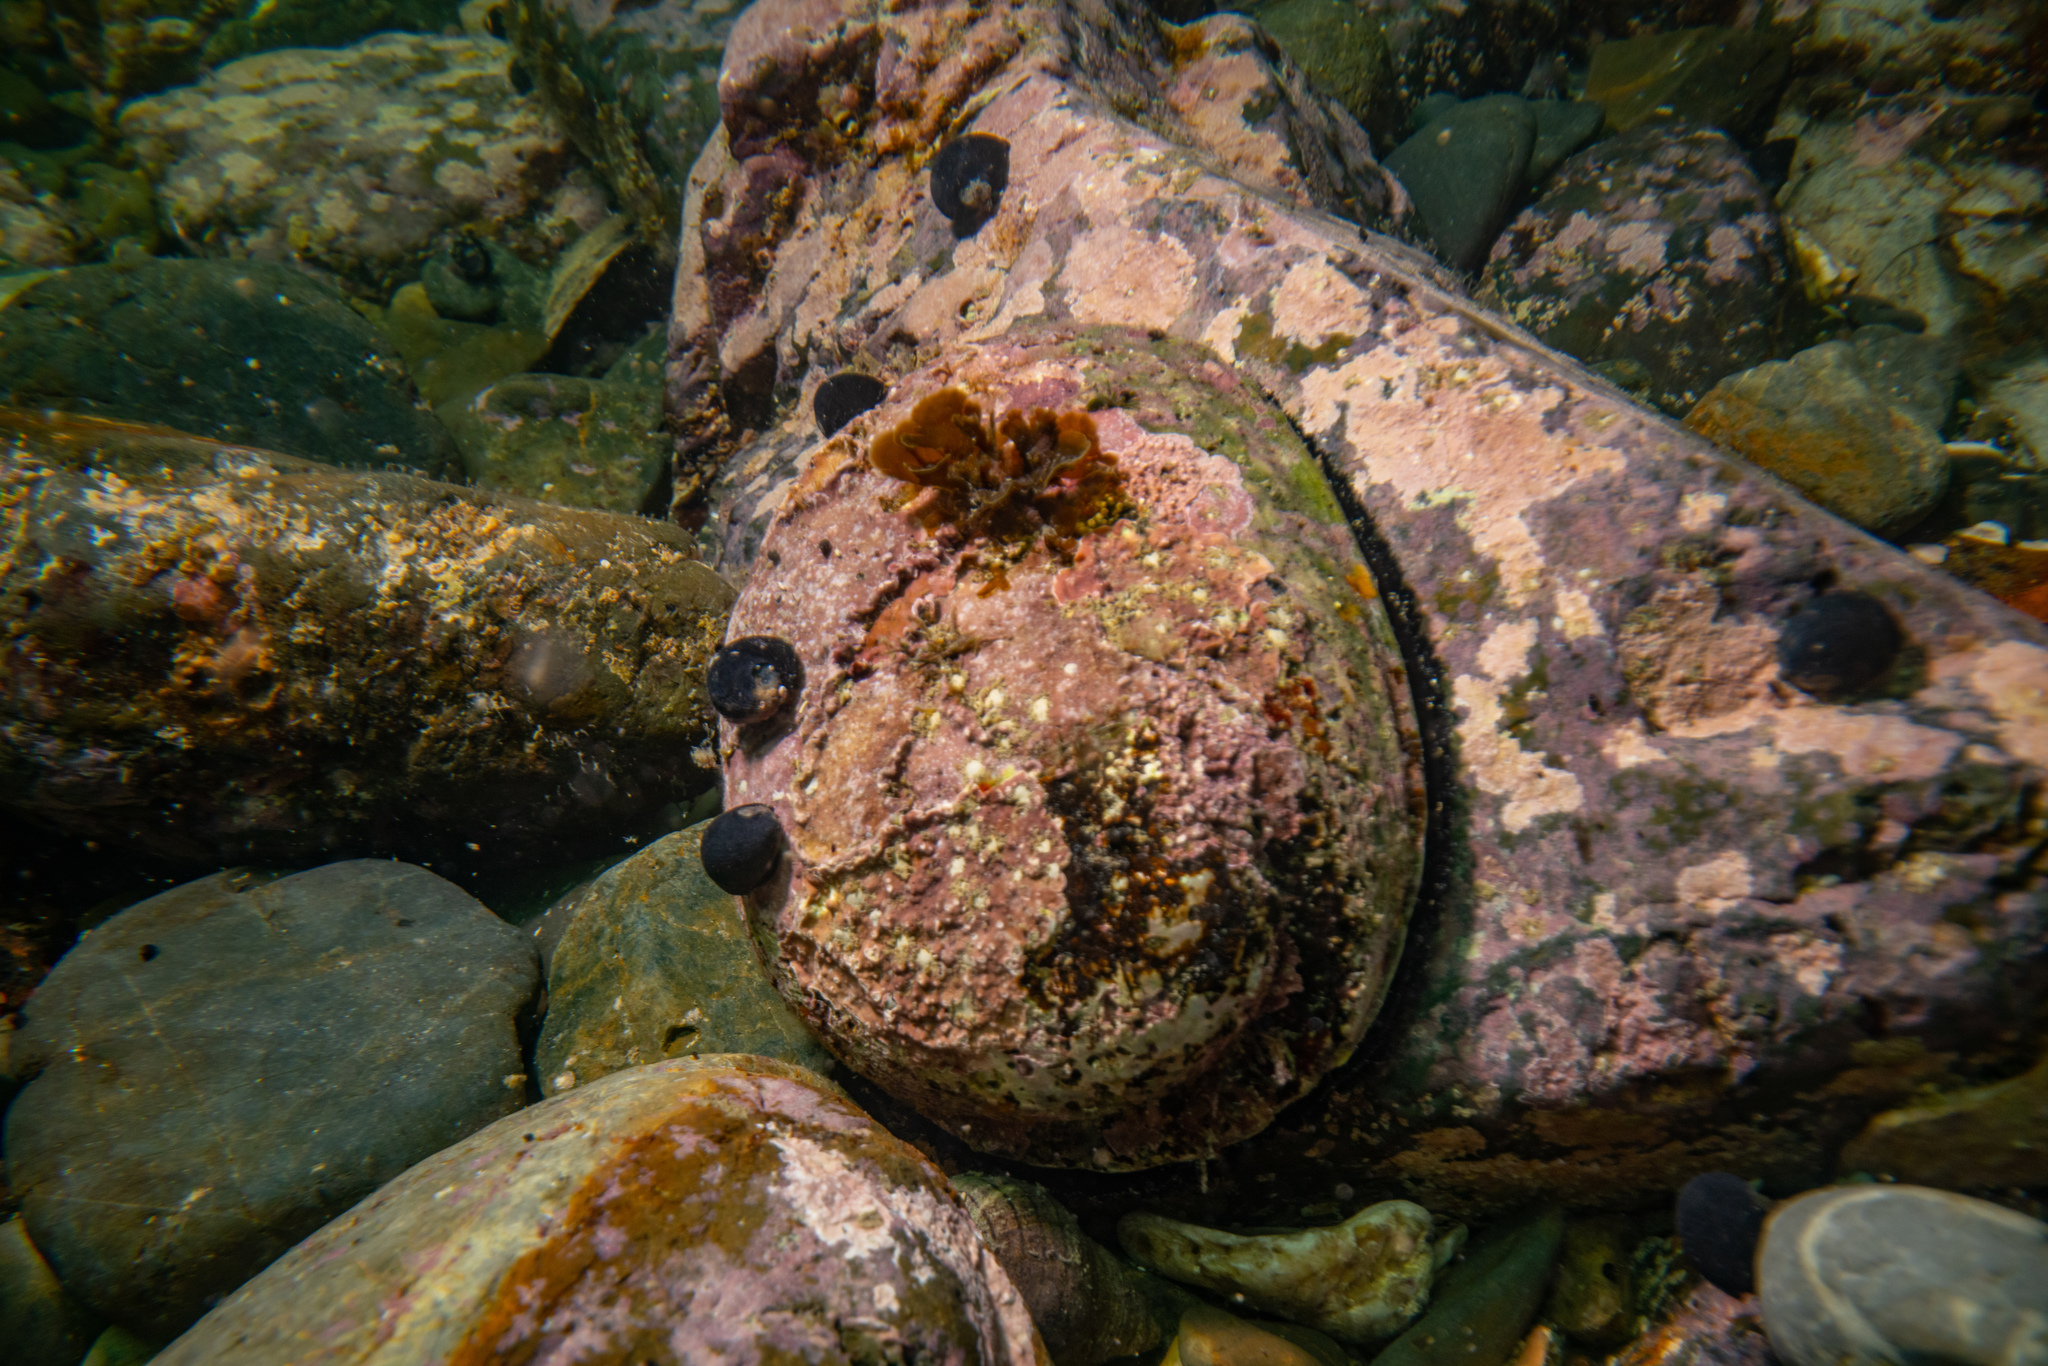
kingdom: Animalia
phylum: Mollusca
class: Gastropoda
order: Lepetellida
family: Haliotidae
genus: Haliotis
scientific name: Haliotis iris
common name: Abalone
